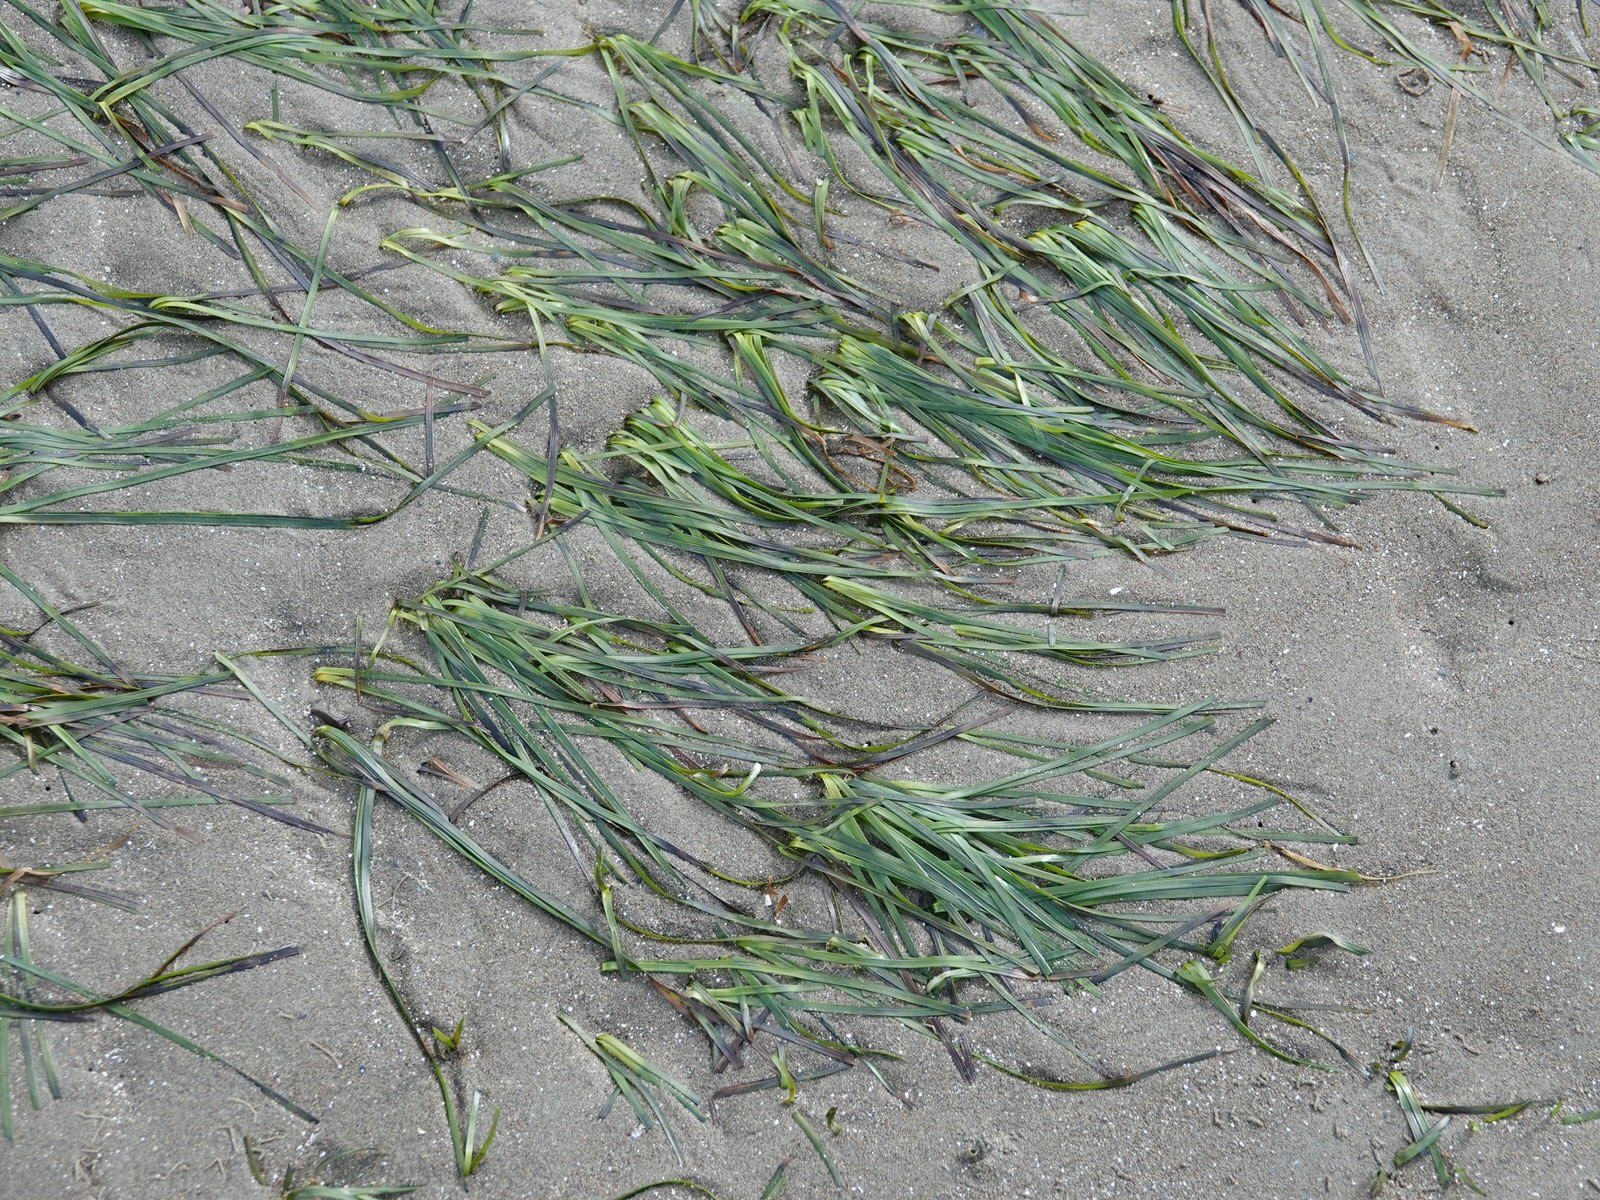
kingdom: Plantae
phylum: Tracheophyta
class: Liliopsida
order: Alismatales
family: Zosteraceae
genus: Zostera
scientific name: Zostera novazelandica
